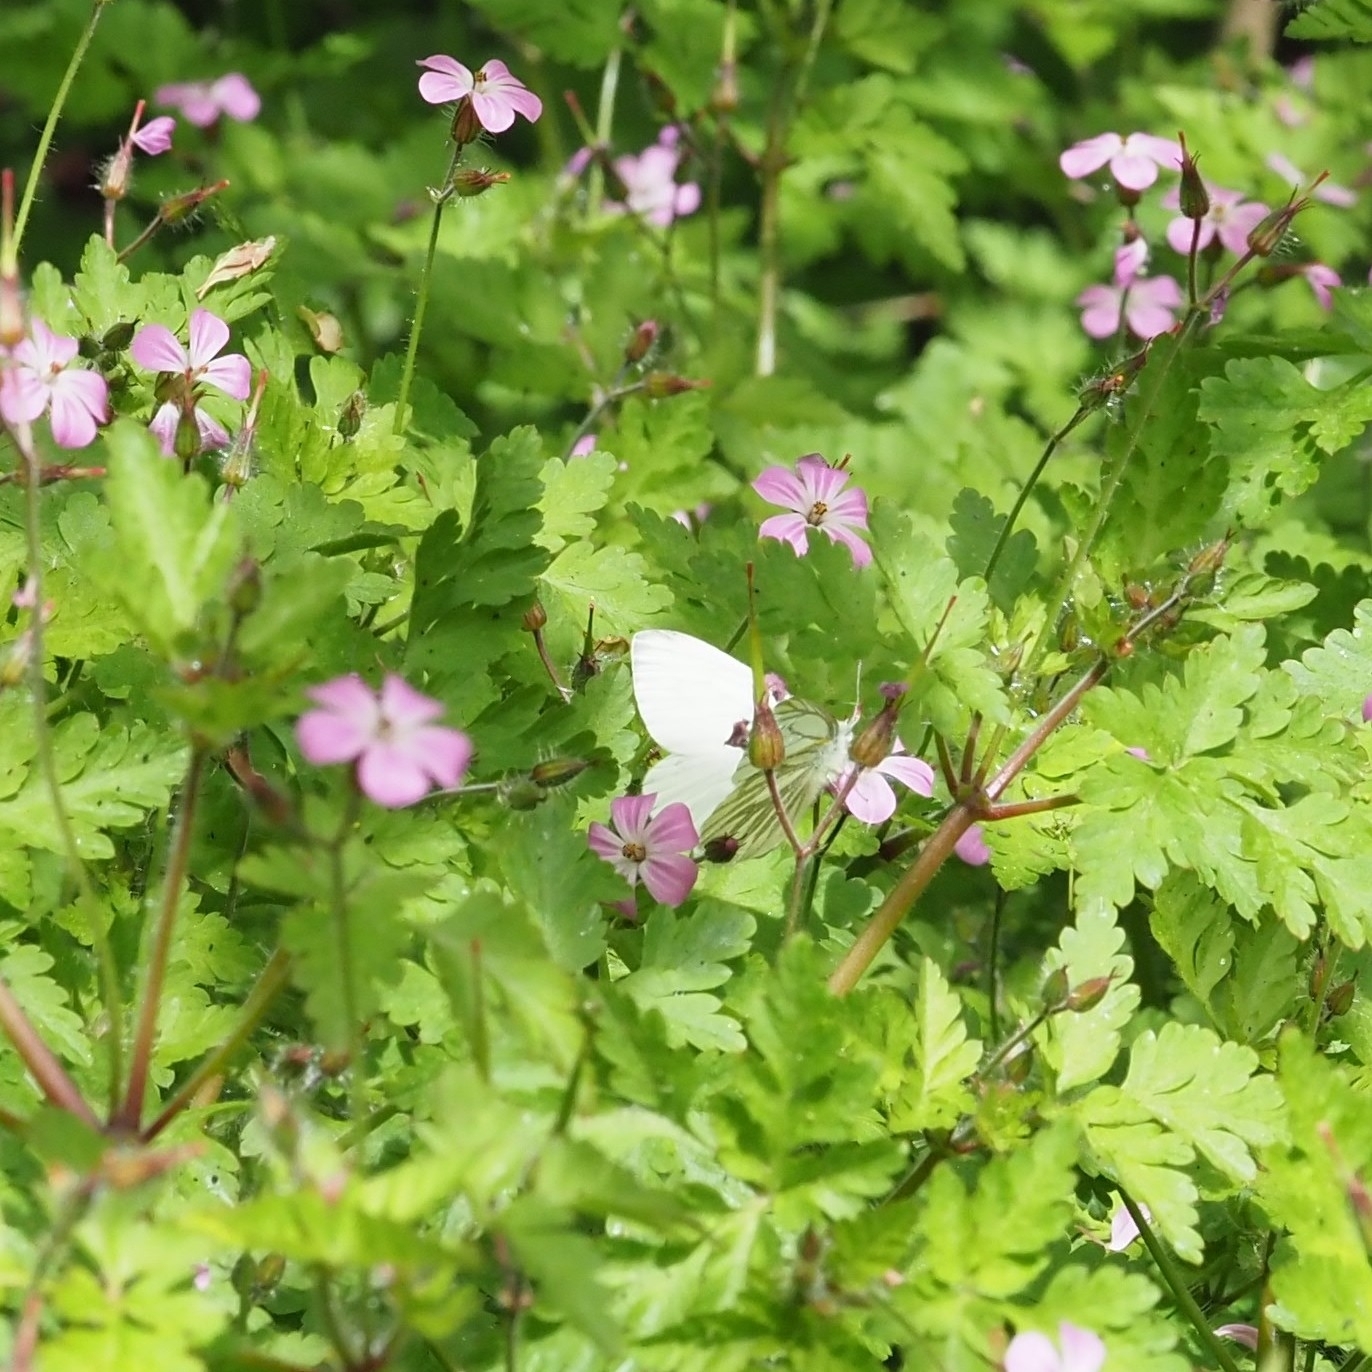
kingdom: Animalia
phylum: Arthropoda
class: Insecta
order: Lepidoptera
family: Pieridae
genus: Pieris
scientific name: Pieris napi
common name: Green-veined white
